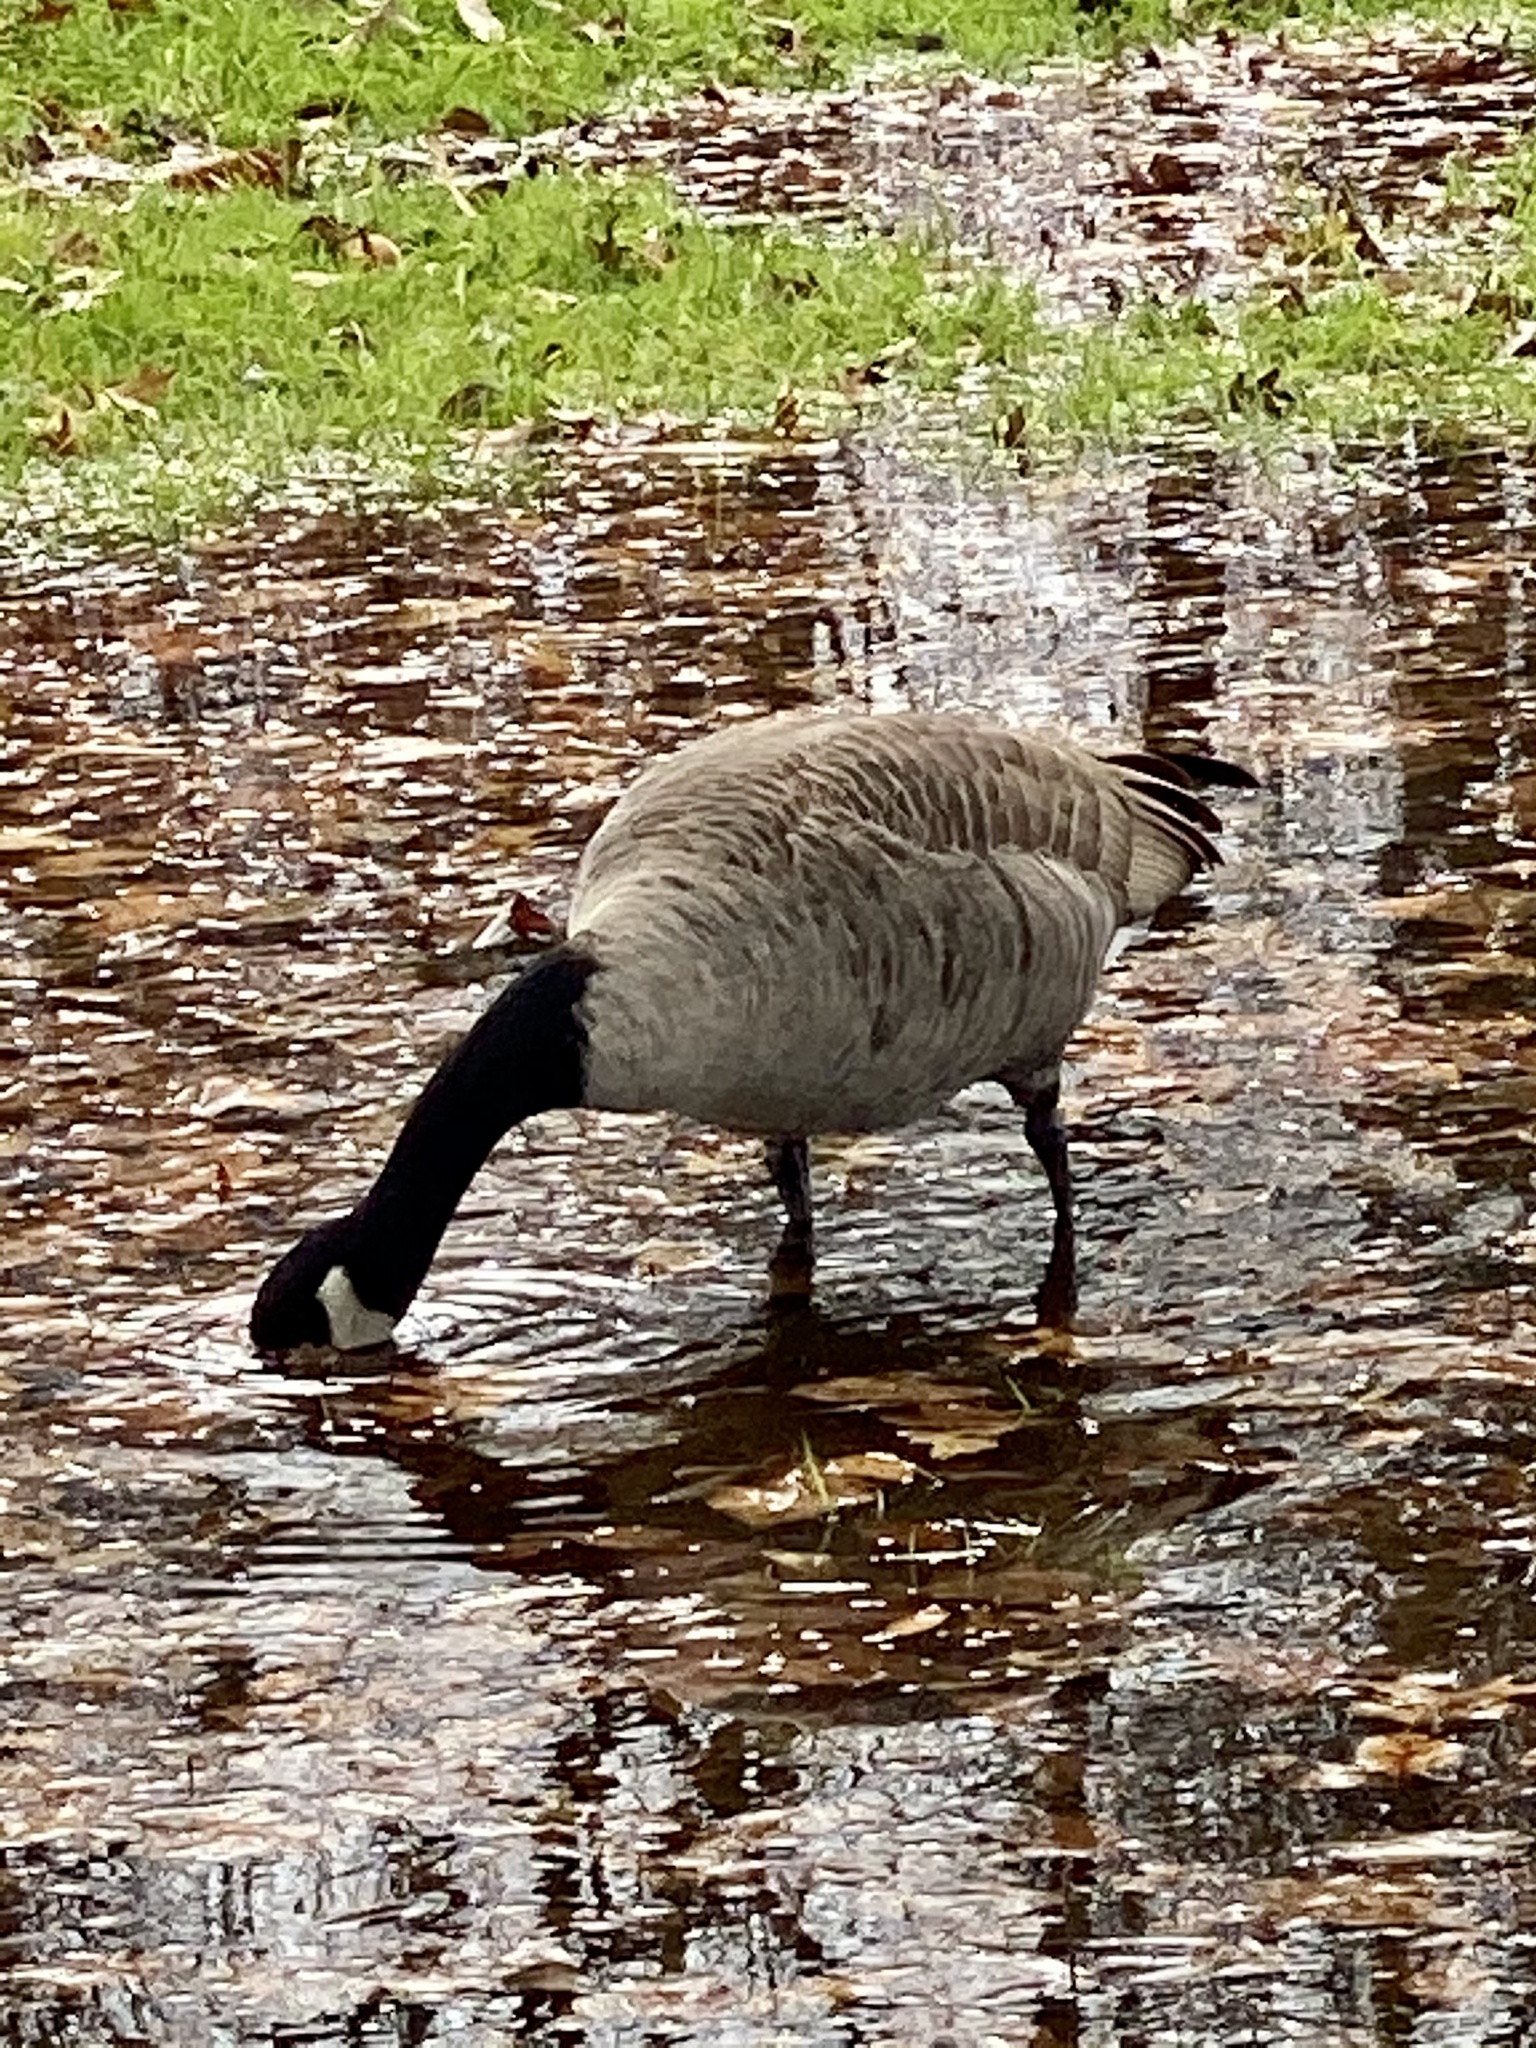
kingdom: Animalia
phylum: Chordata
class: Aves
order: Anseriformes
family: Anatidae
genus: Branta
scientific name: Branta canadensis
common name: Canada goose
